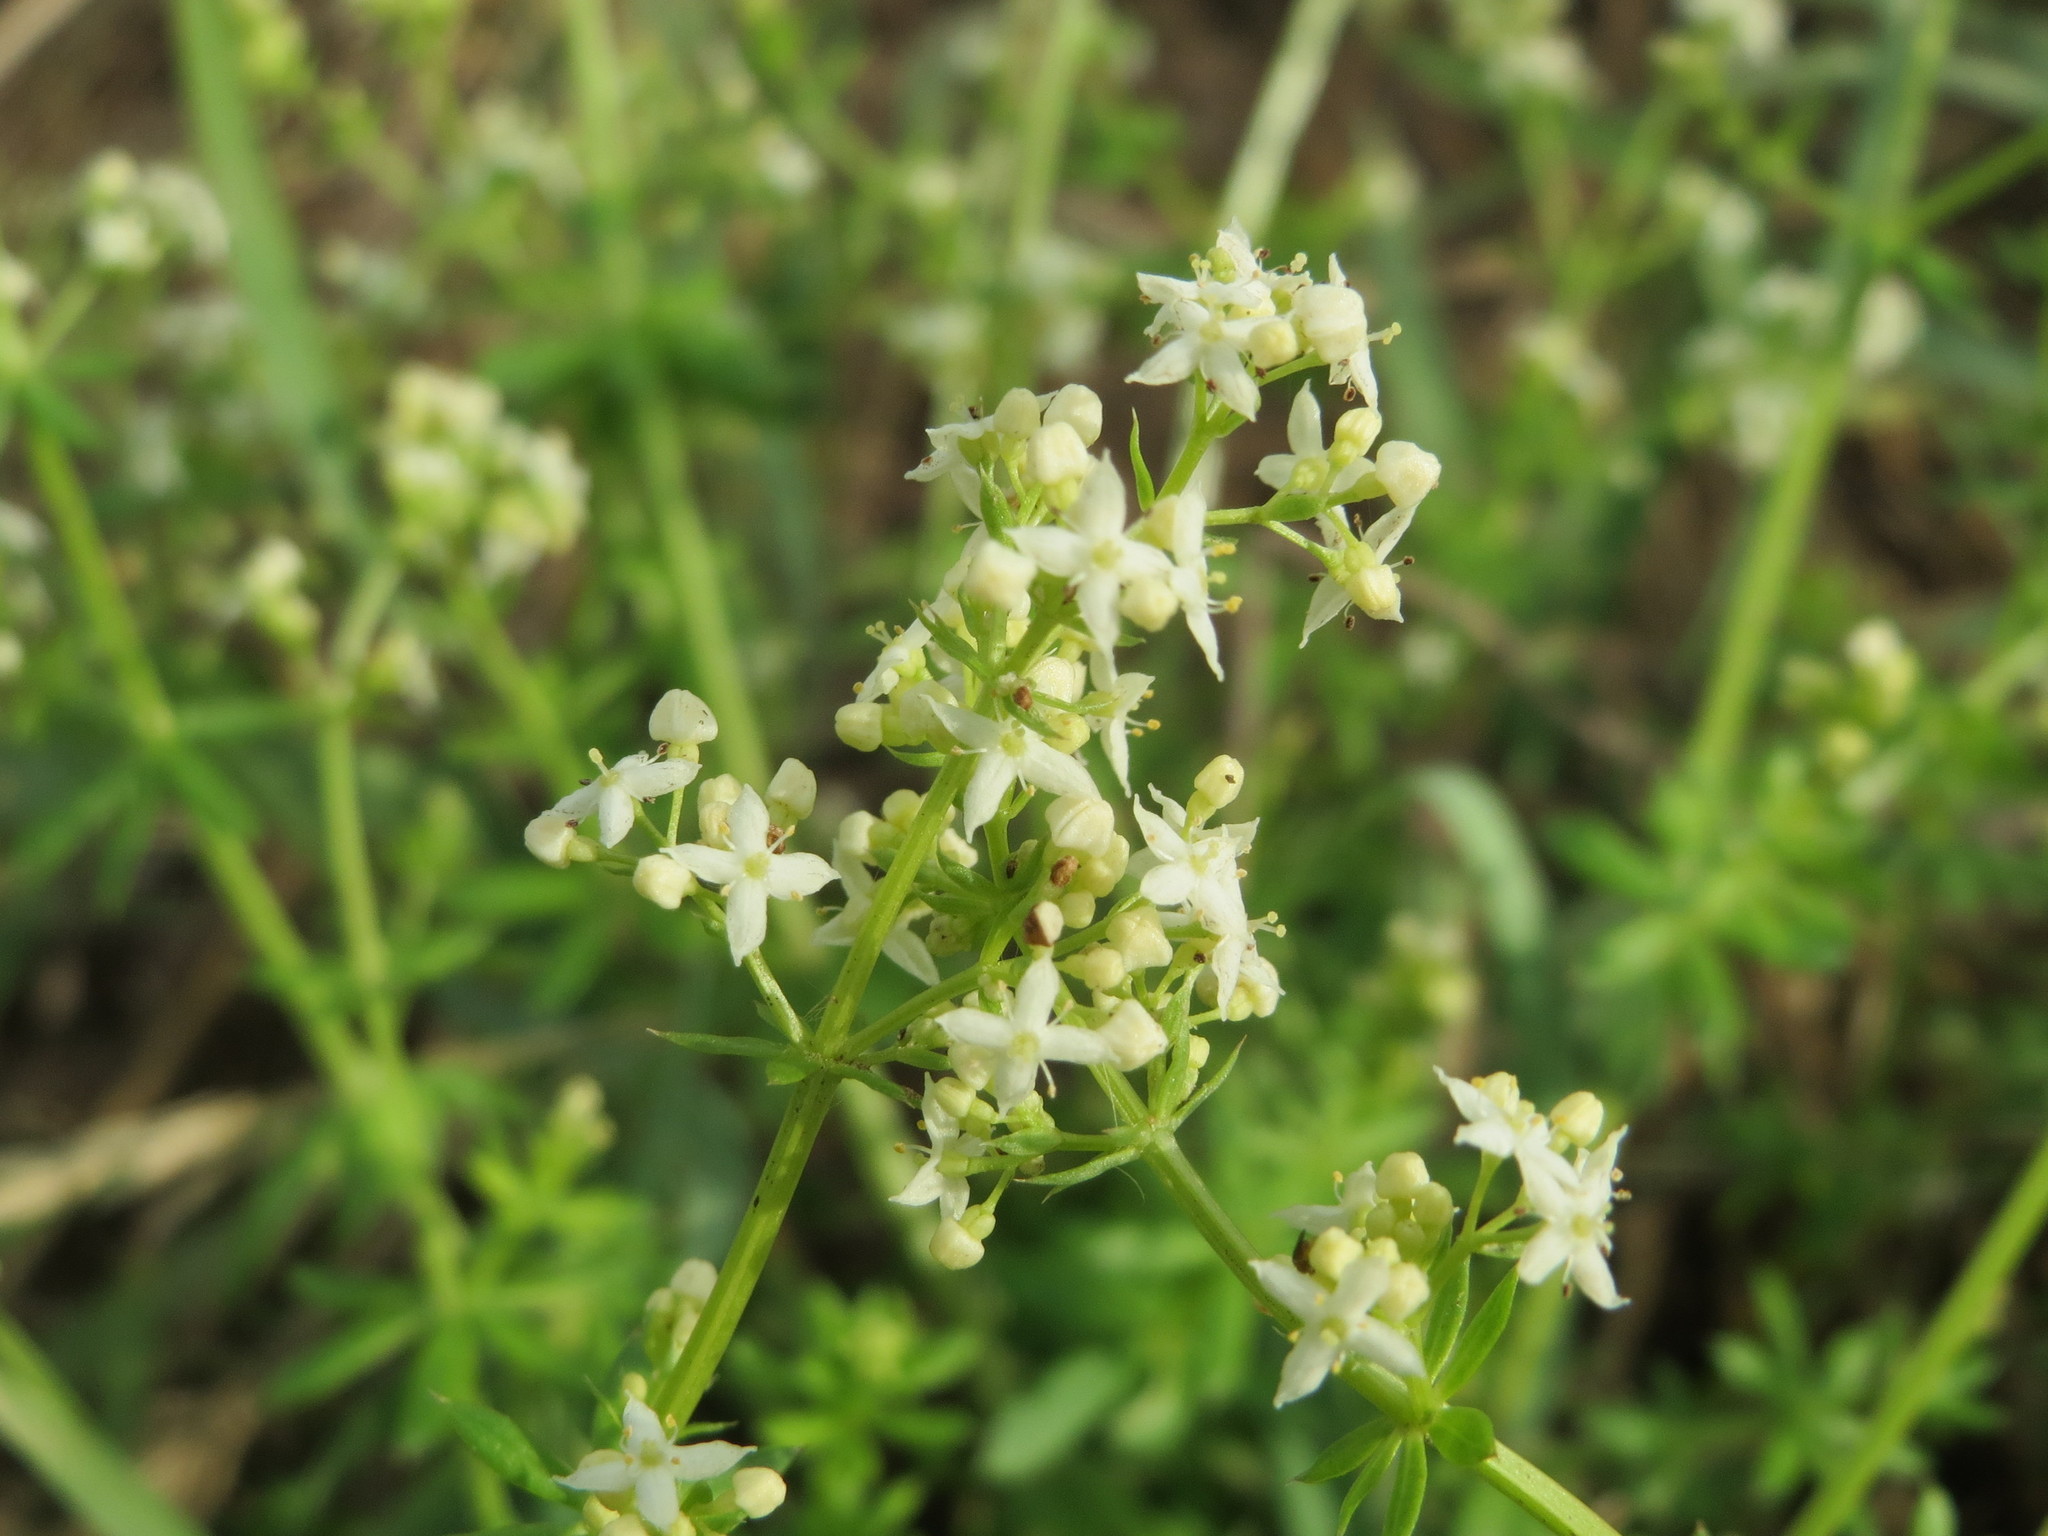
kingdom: Plantae
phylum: Tracheophyta
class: Magnoliopsida
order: Gentianales
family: Rubiaceae
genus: Galium
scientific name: Galium album
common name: White bedstraw
